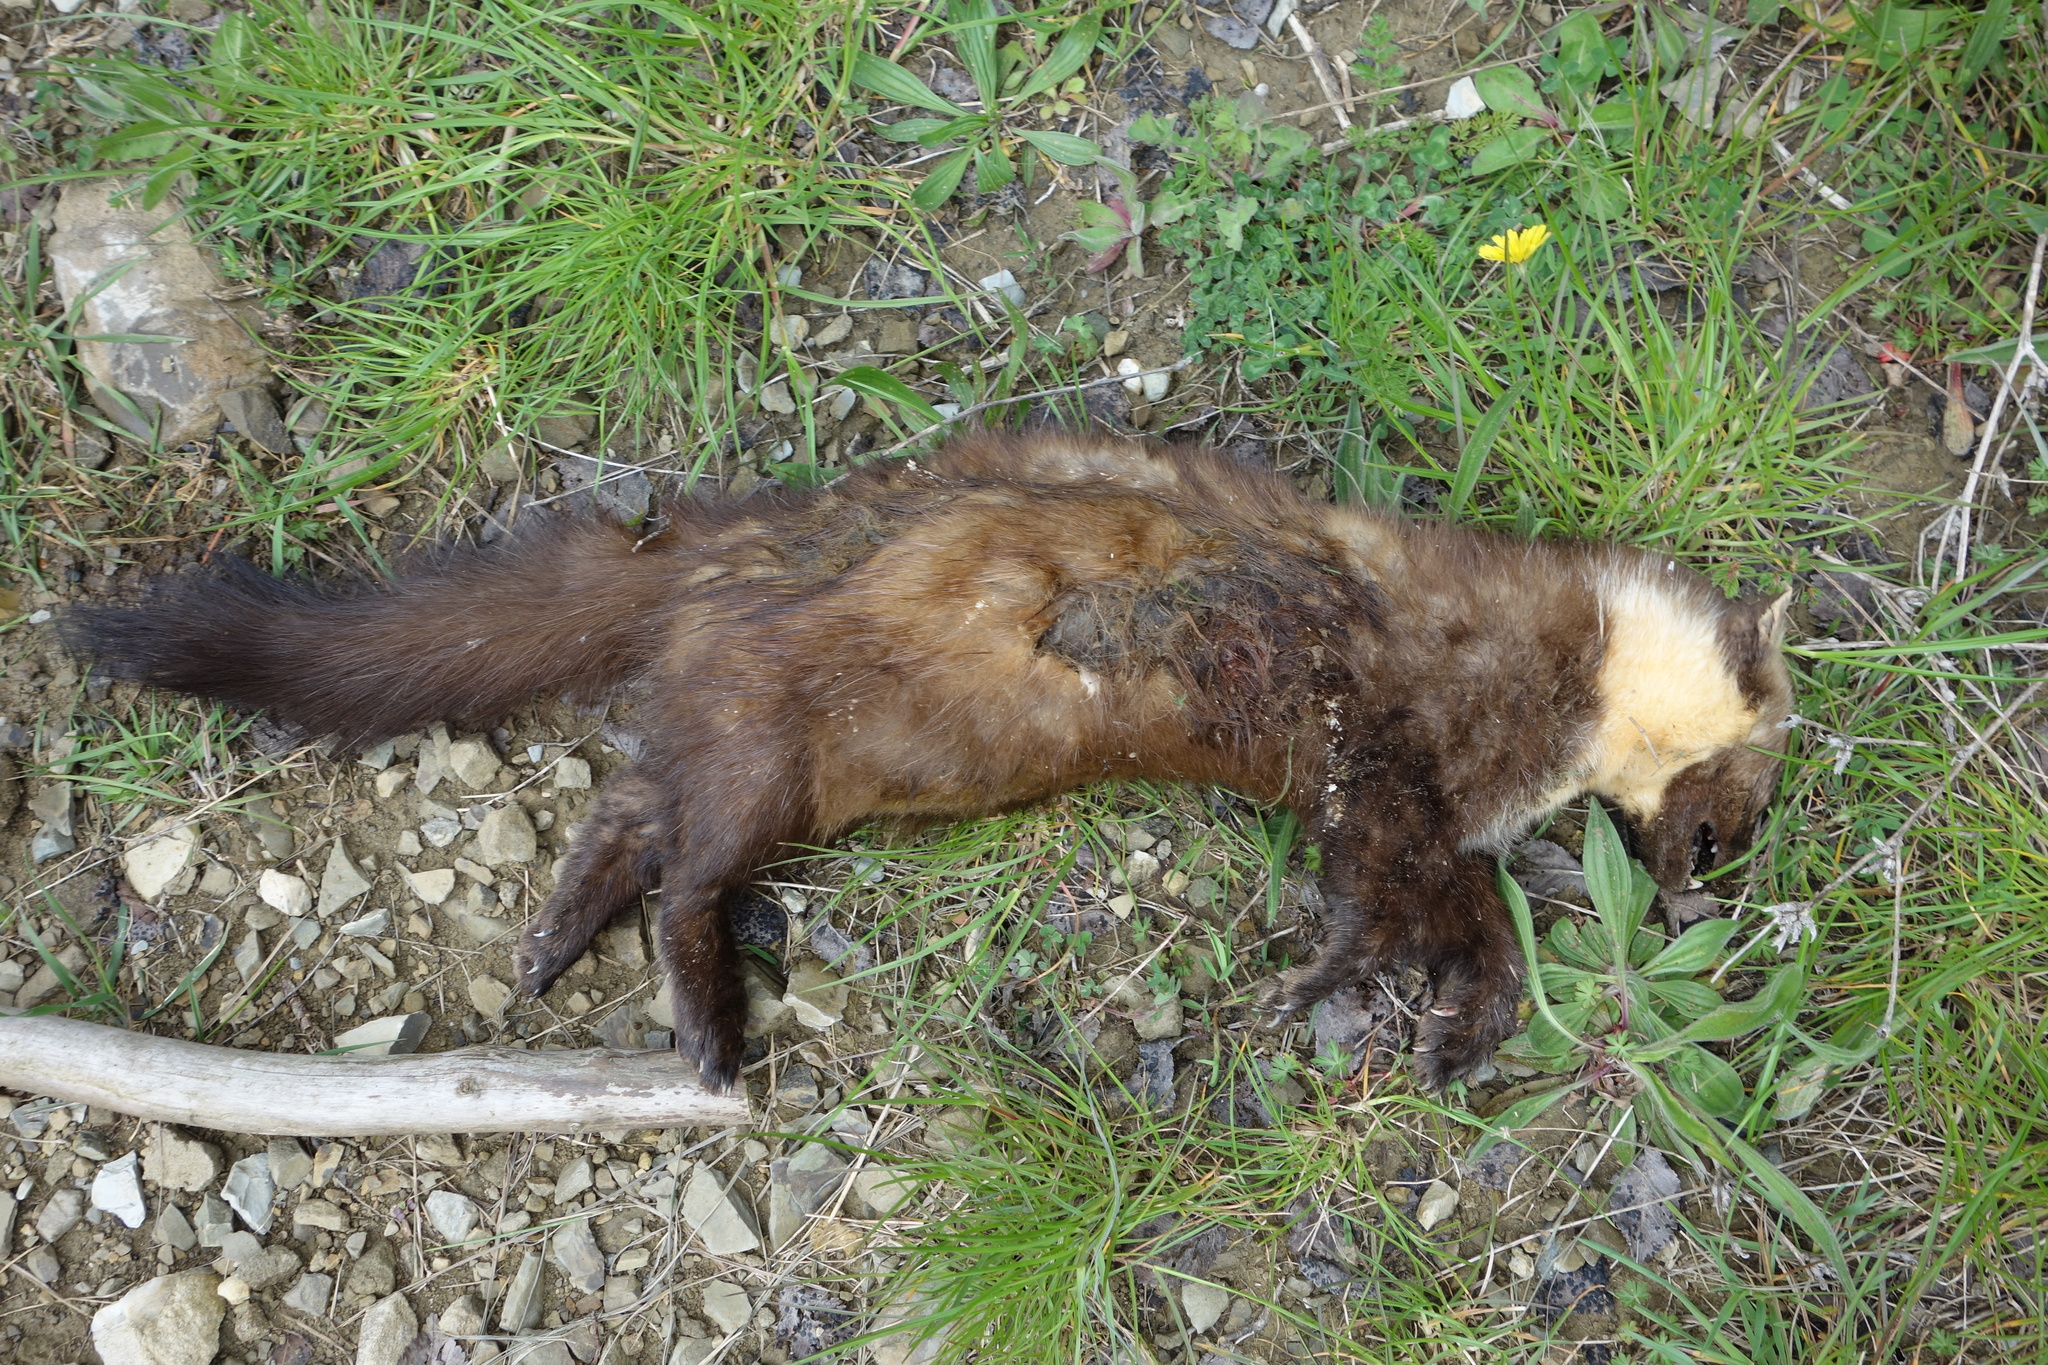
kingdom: Animalia
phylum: Chordata
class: Mammalia
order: Carnivora
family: Mustelidae
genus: Martes
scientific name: Martes martes
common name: European pine marten
